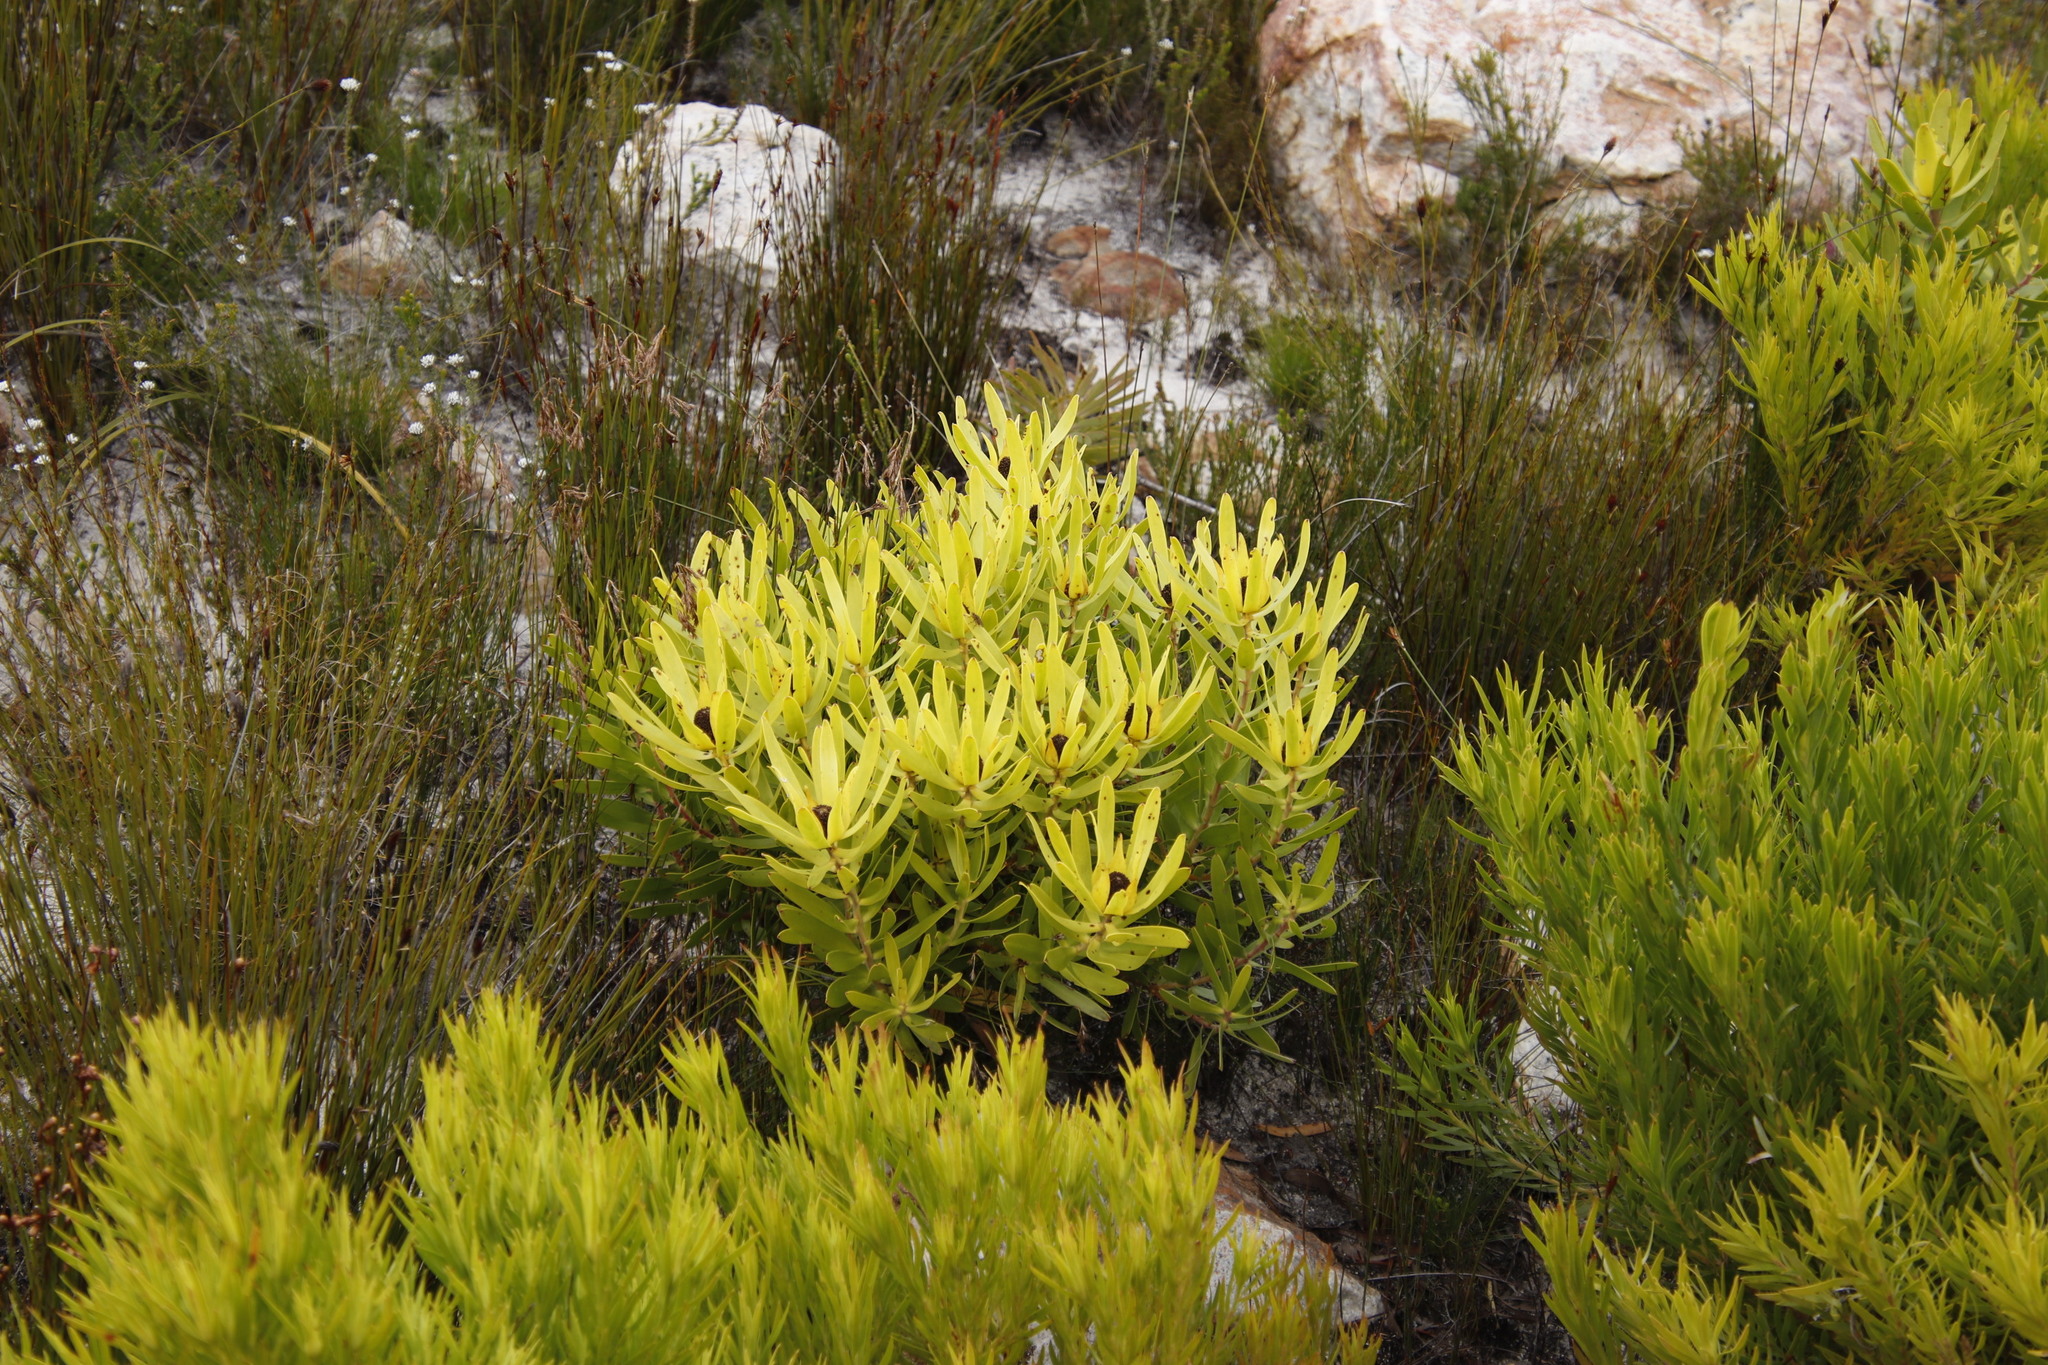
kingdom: Plantae
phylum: Tracheophyta
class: Magnoliopsida
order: Proteales
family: Proteaceae
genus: Leucadendron
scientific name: Leucadendron microcephalum
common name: Oilbract conebush
